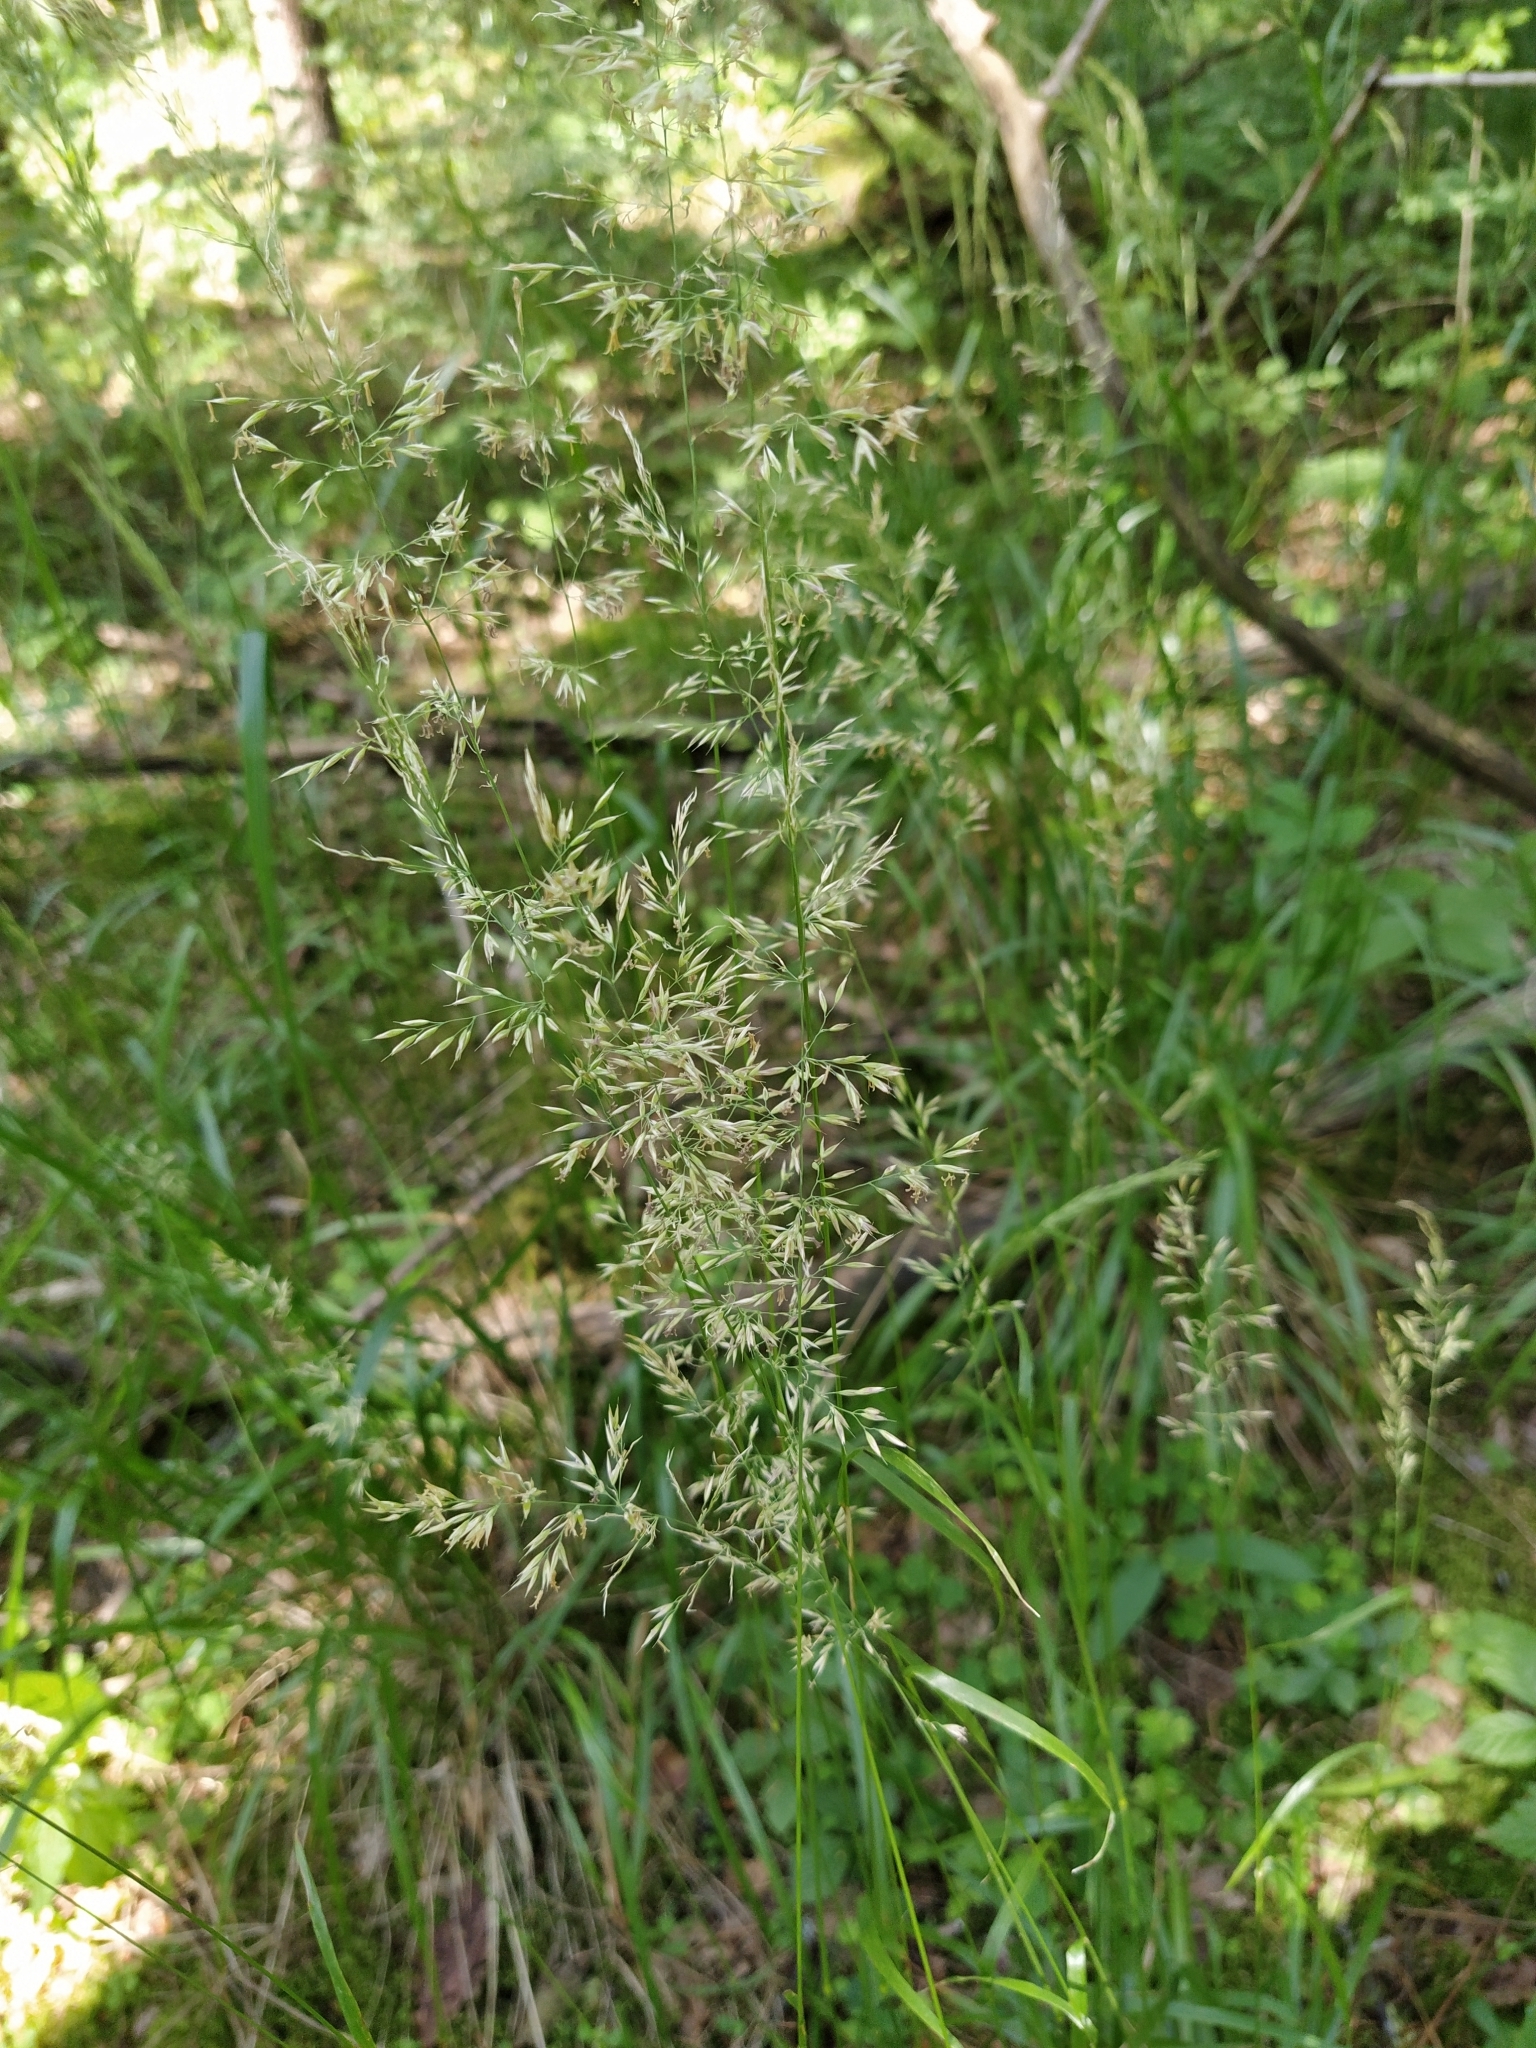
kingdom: Plantae
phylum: Tracheophyta
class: Liliopsida
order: Poales
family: Poaceae
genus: Calamagrostis
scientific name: Calamagrostis arundinacea
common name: Metskastik
